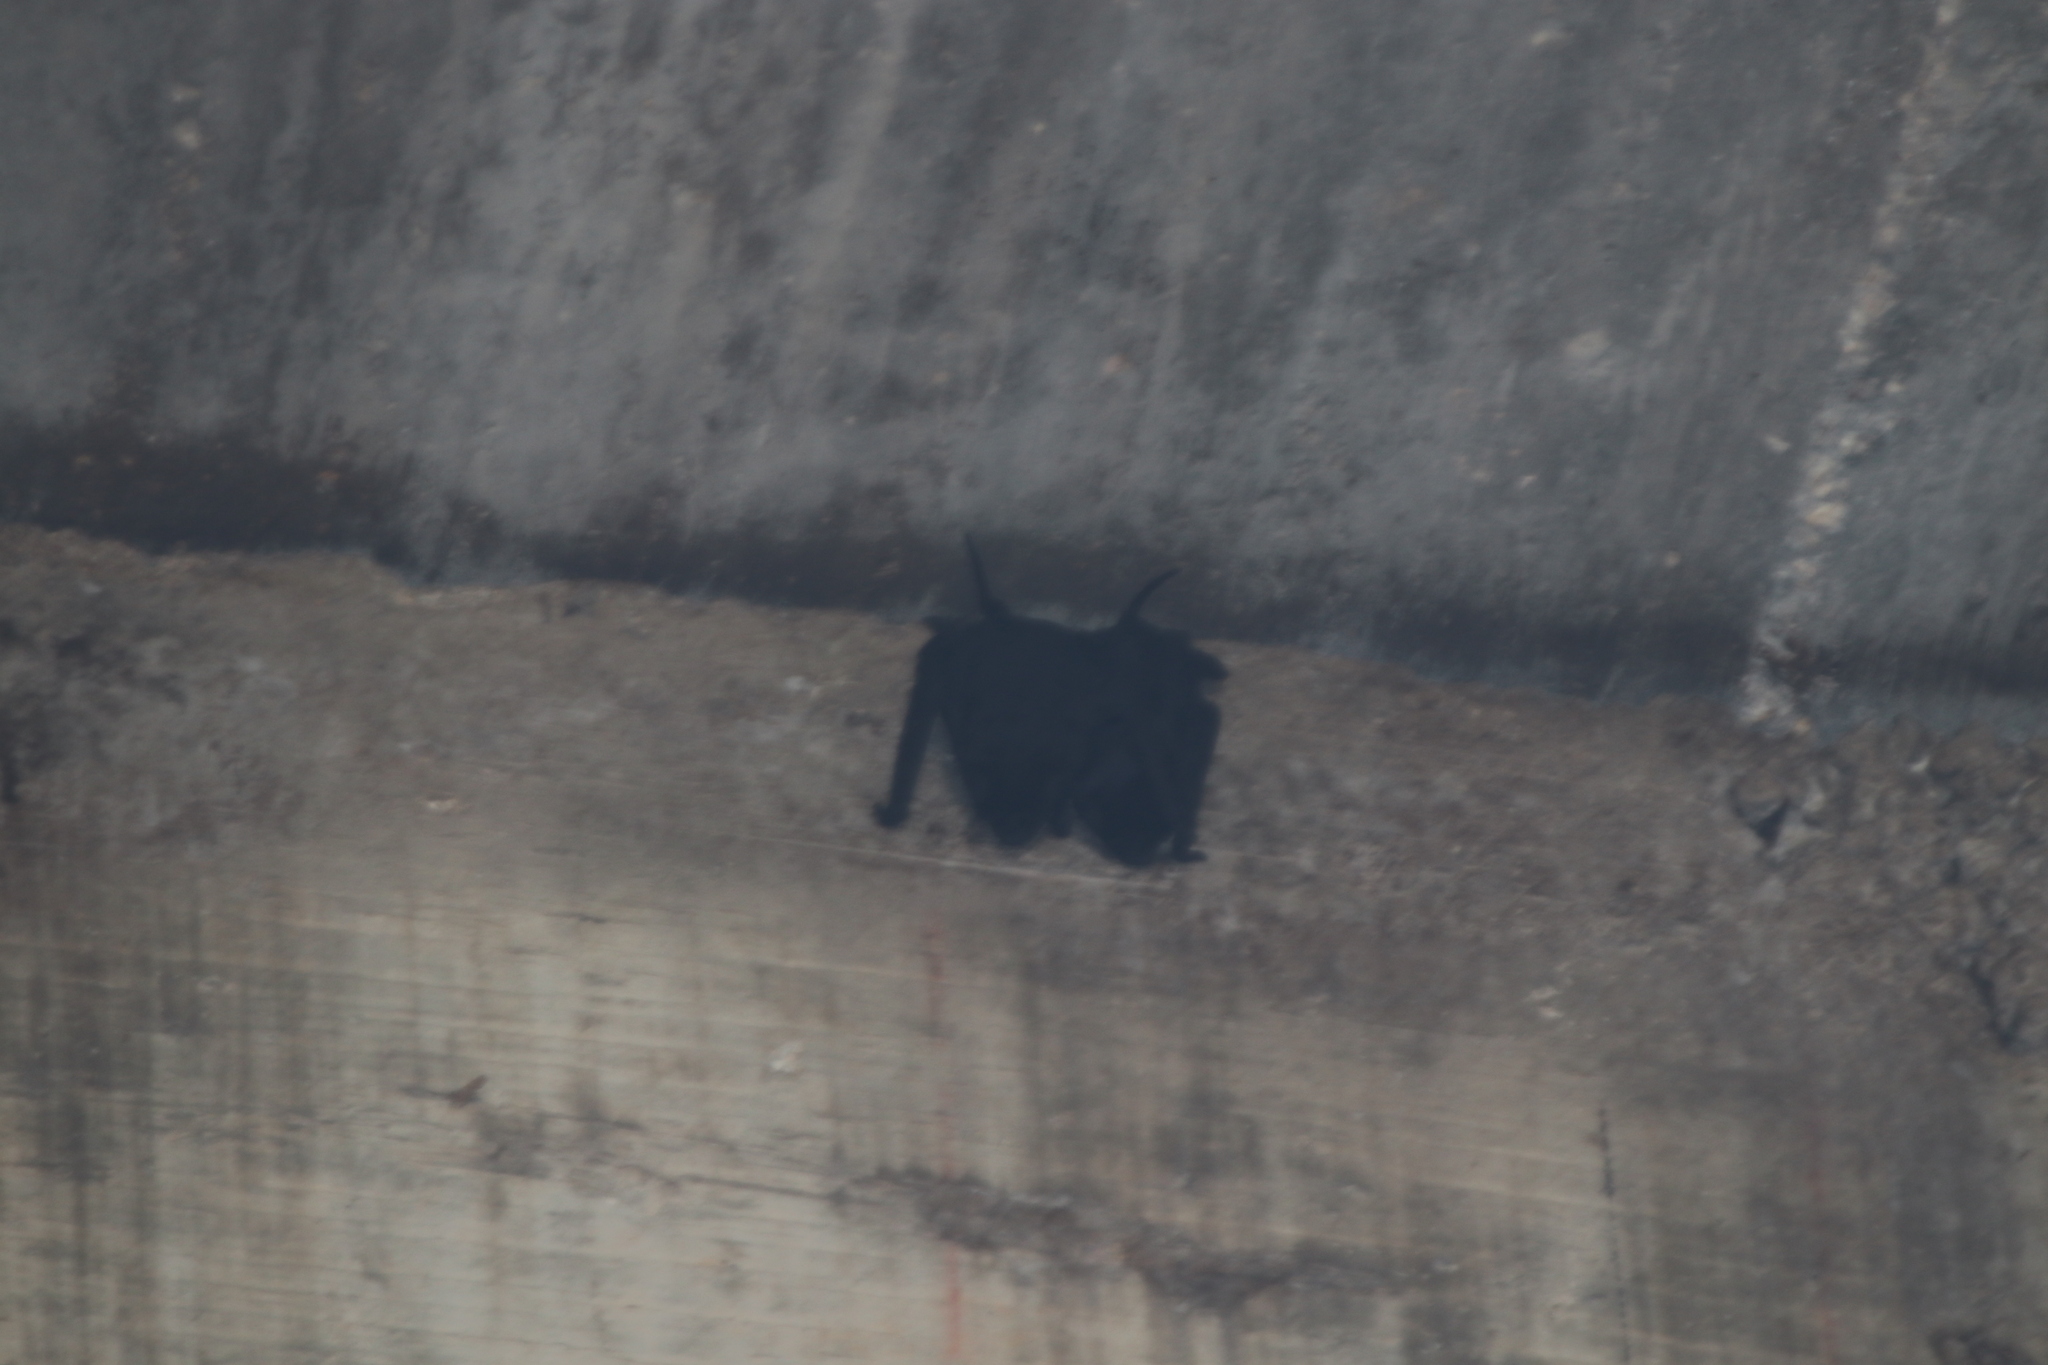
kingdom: Animalia
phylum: Chordata
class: Mammalia
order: Chiroptera
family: Molossidae
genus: Molossus
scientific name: Molossus nigricans
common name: Northern black mastiff bat
